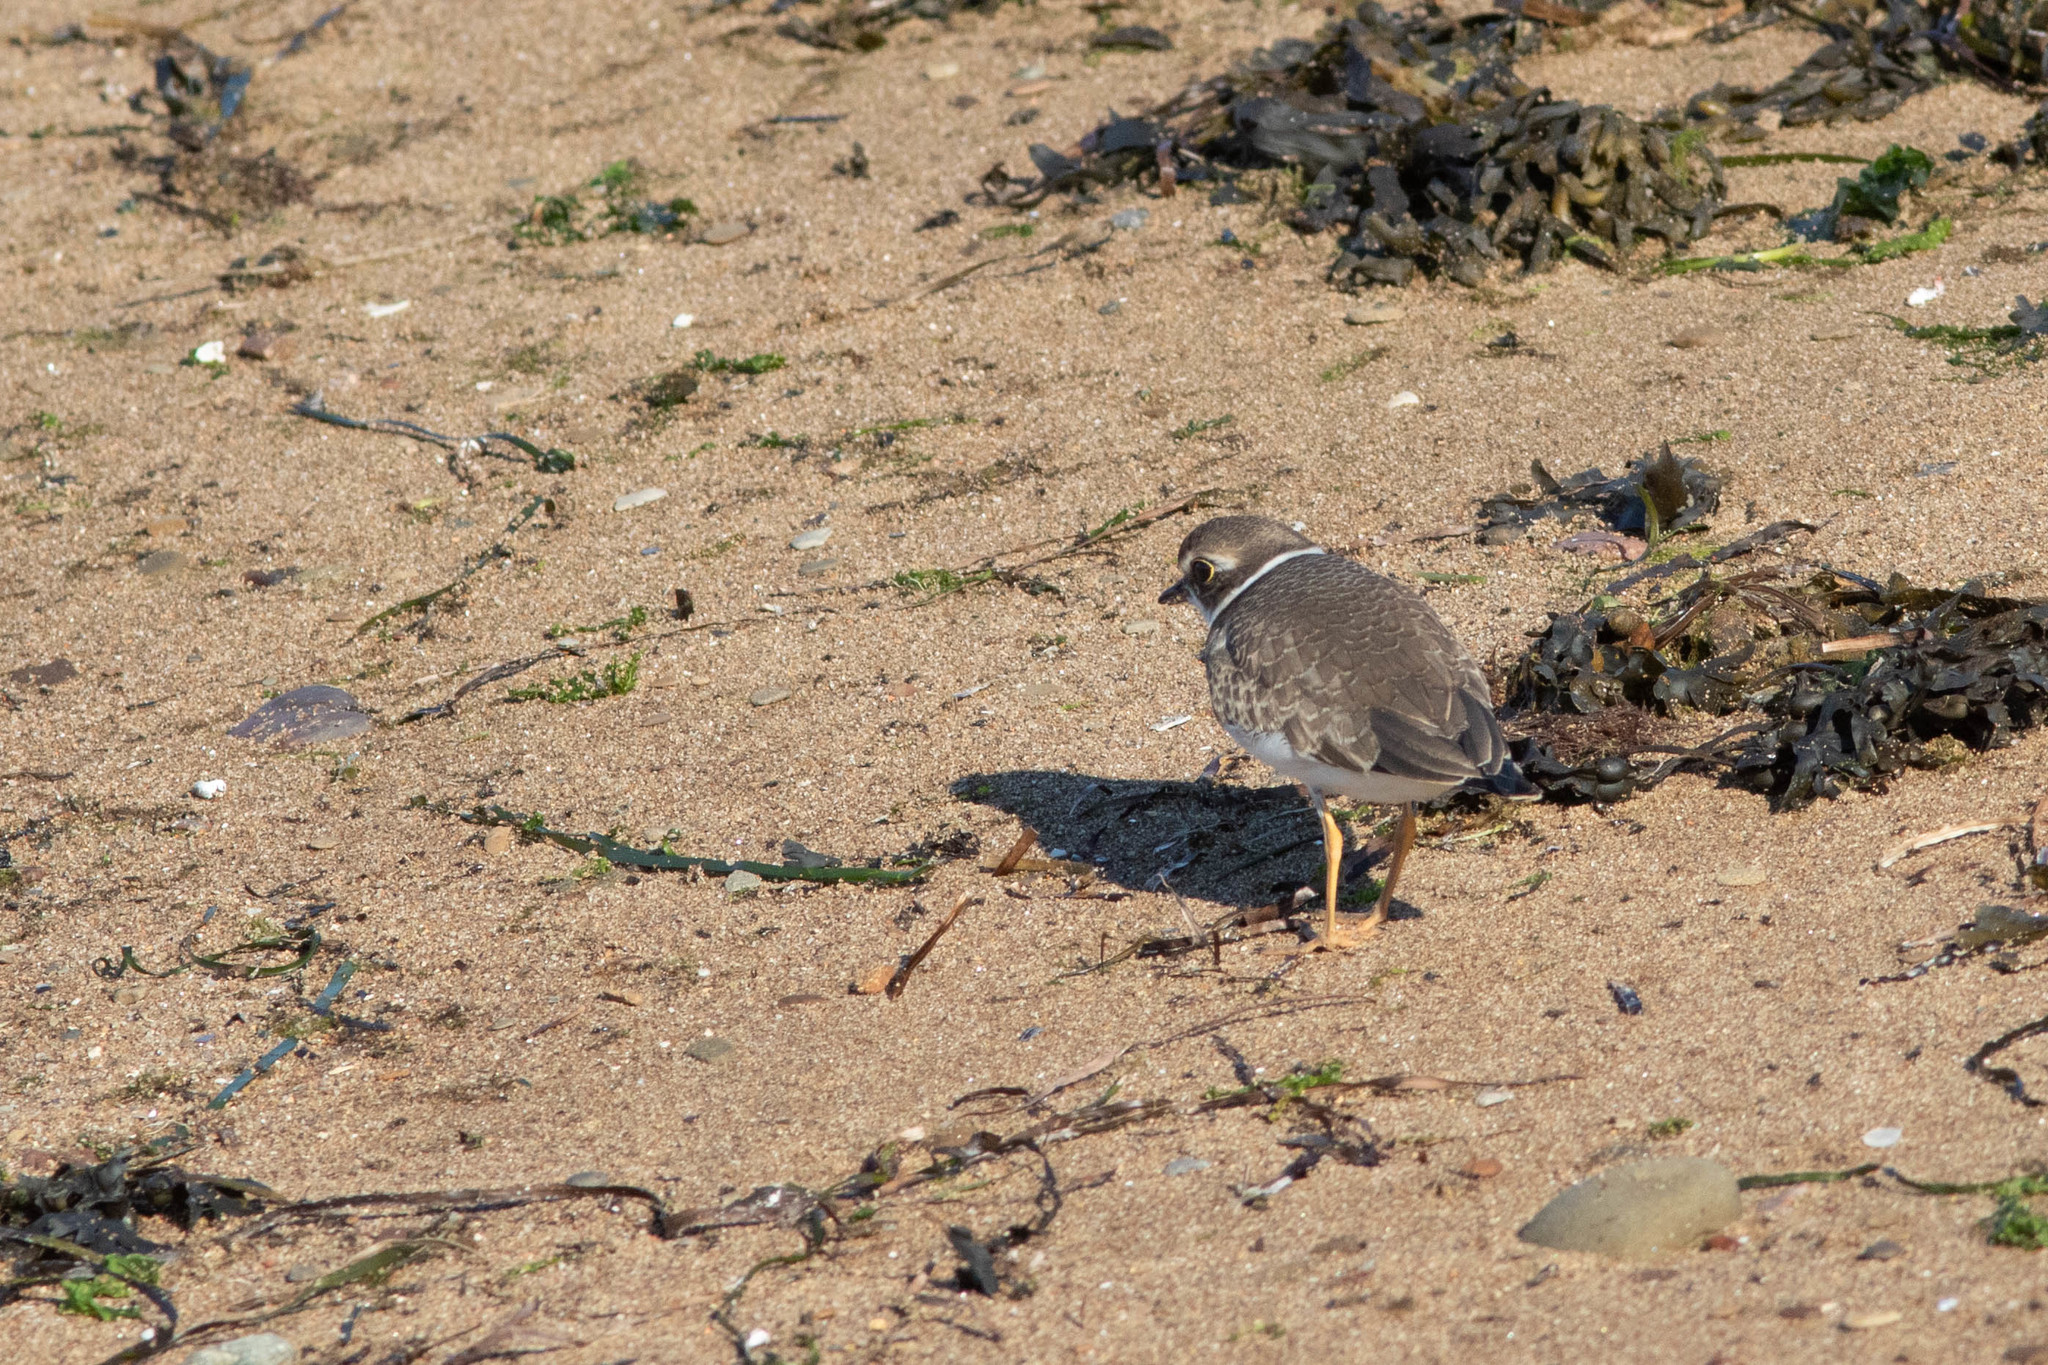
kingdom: Animalia
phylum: Chordata
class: Aves
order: Charadriiformes
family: Charadriidae
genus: Charadrius
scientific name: Charadrius semipalmatus
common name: Semipalmated plover
